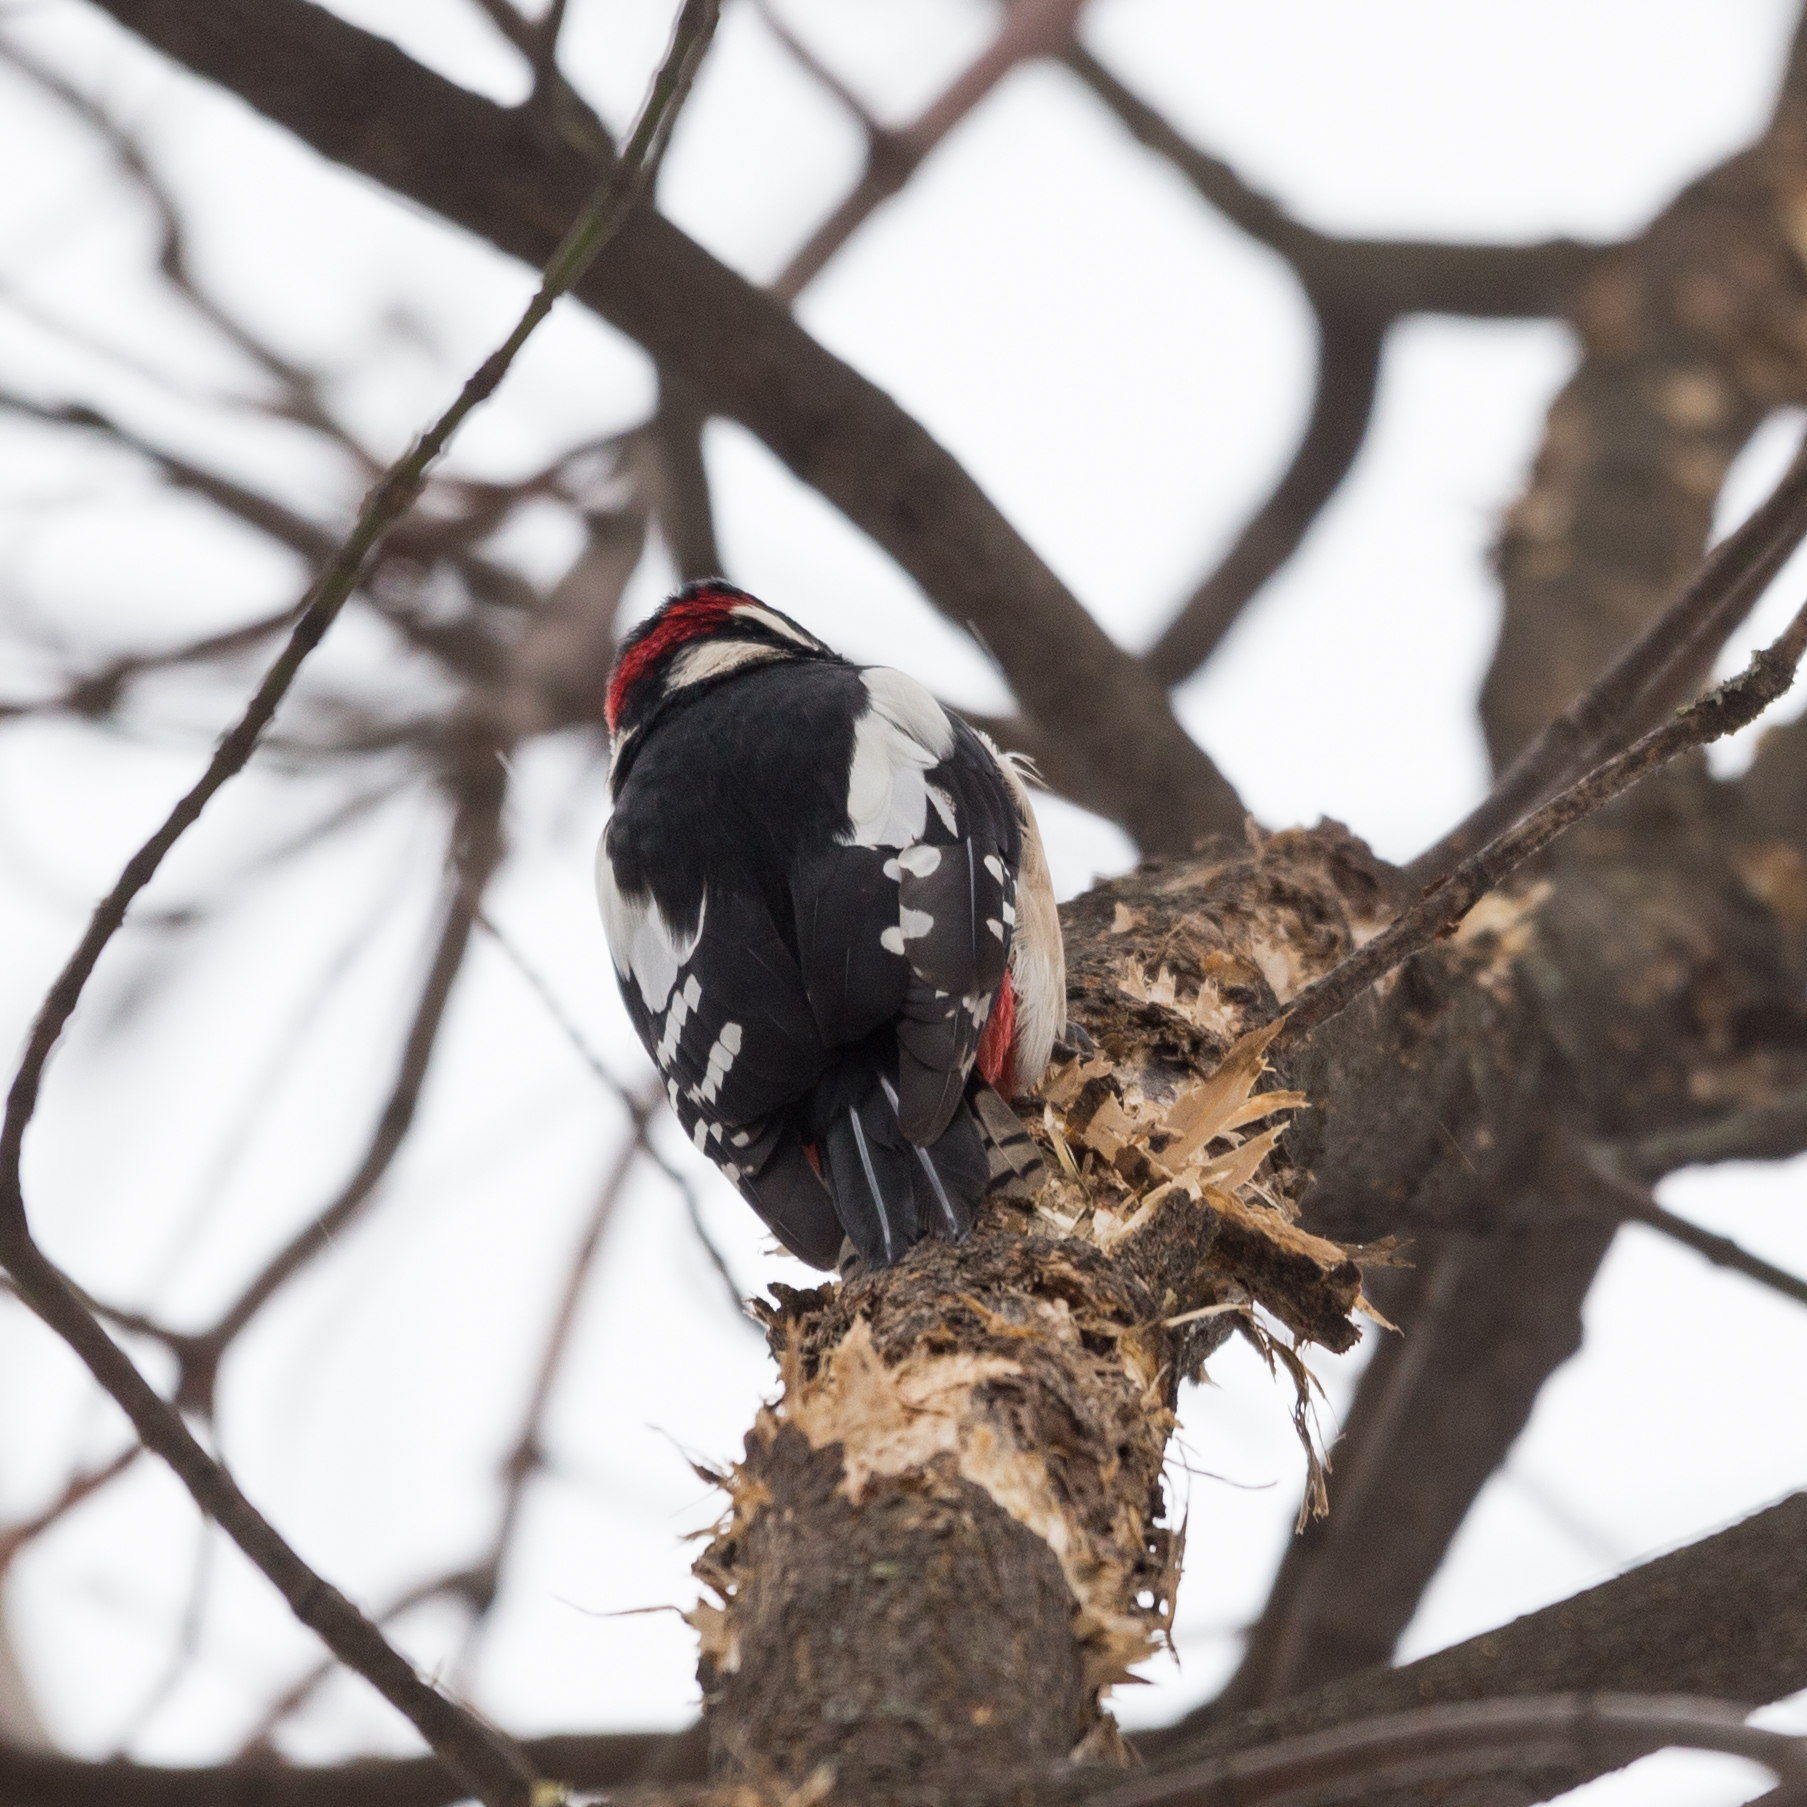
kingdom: Animalia
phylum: Chordata
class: Aves
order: Piciformes
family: Picidae
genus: Dendrocopos
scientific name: Dendrocopos major
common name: Great spotted woodpecker
